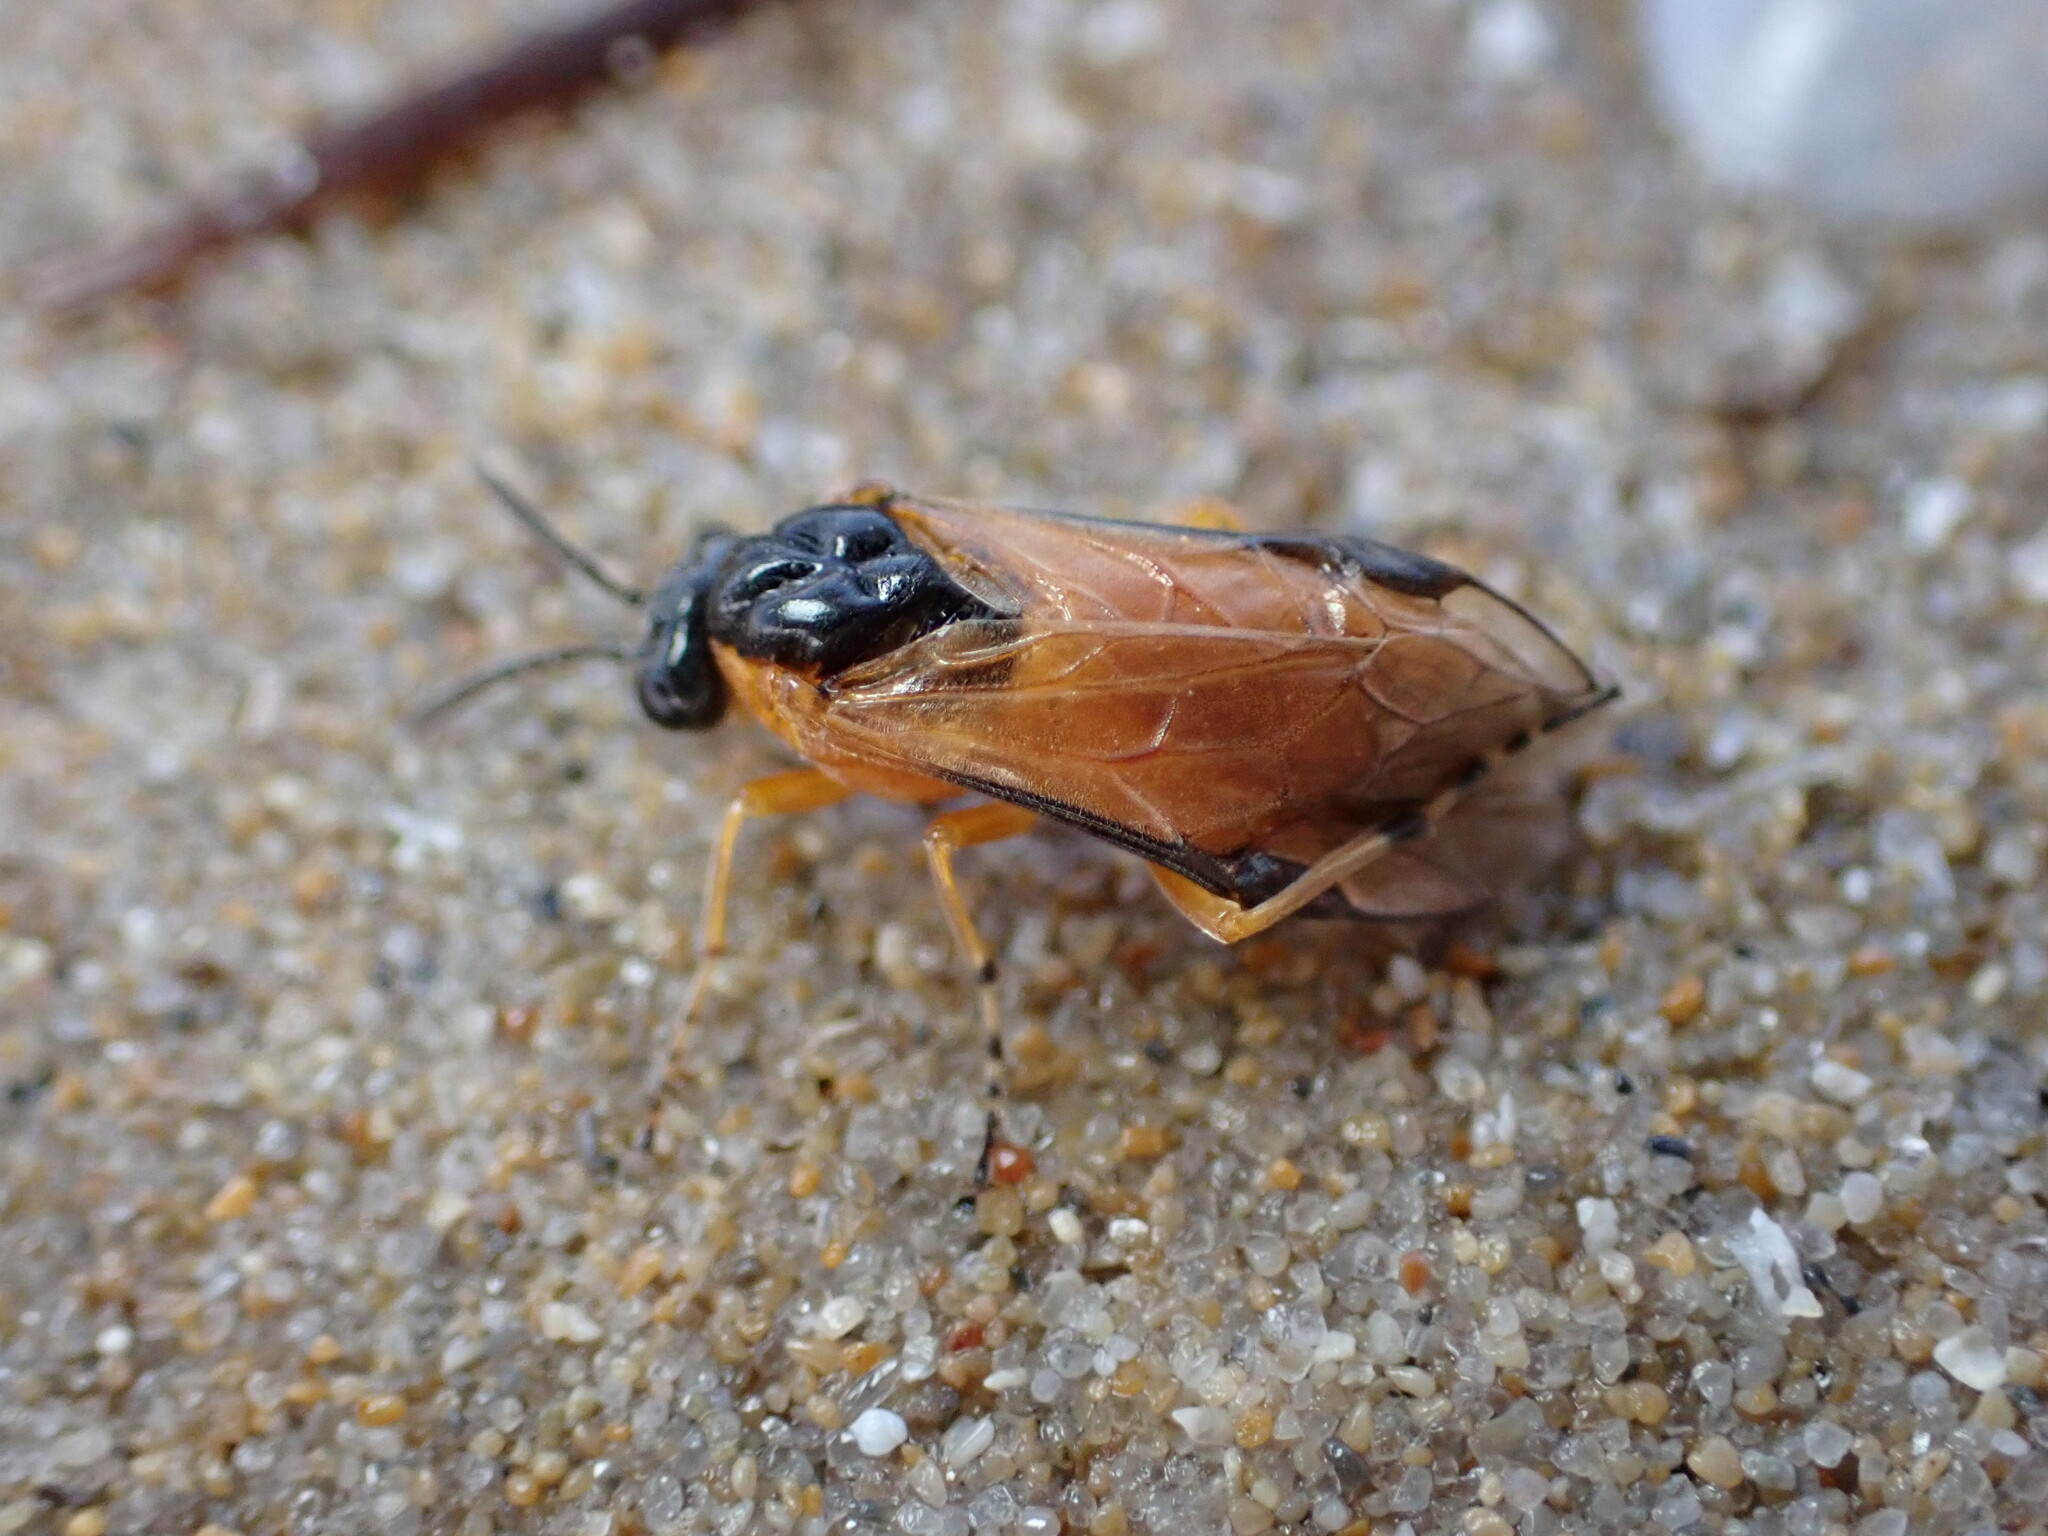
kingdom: Animalia
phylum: Arthropoda
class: Insecta
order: Hymenoptera
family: Tenthredinidae
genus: Athalia
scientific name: Athalia ancilla
